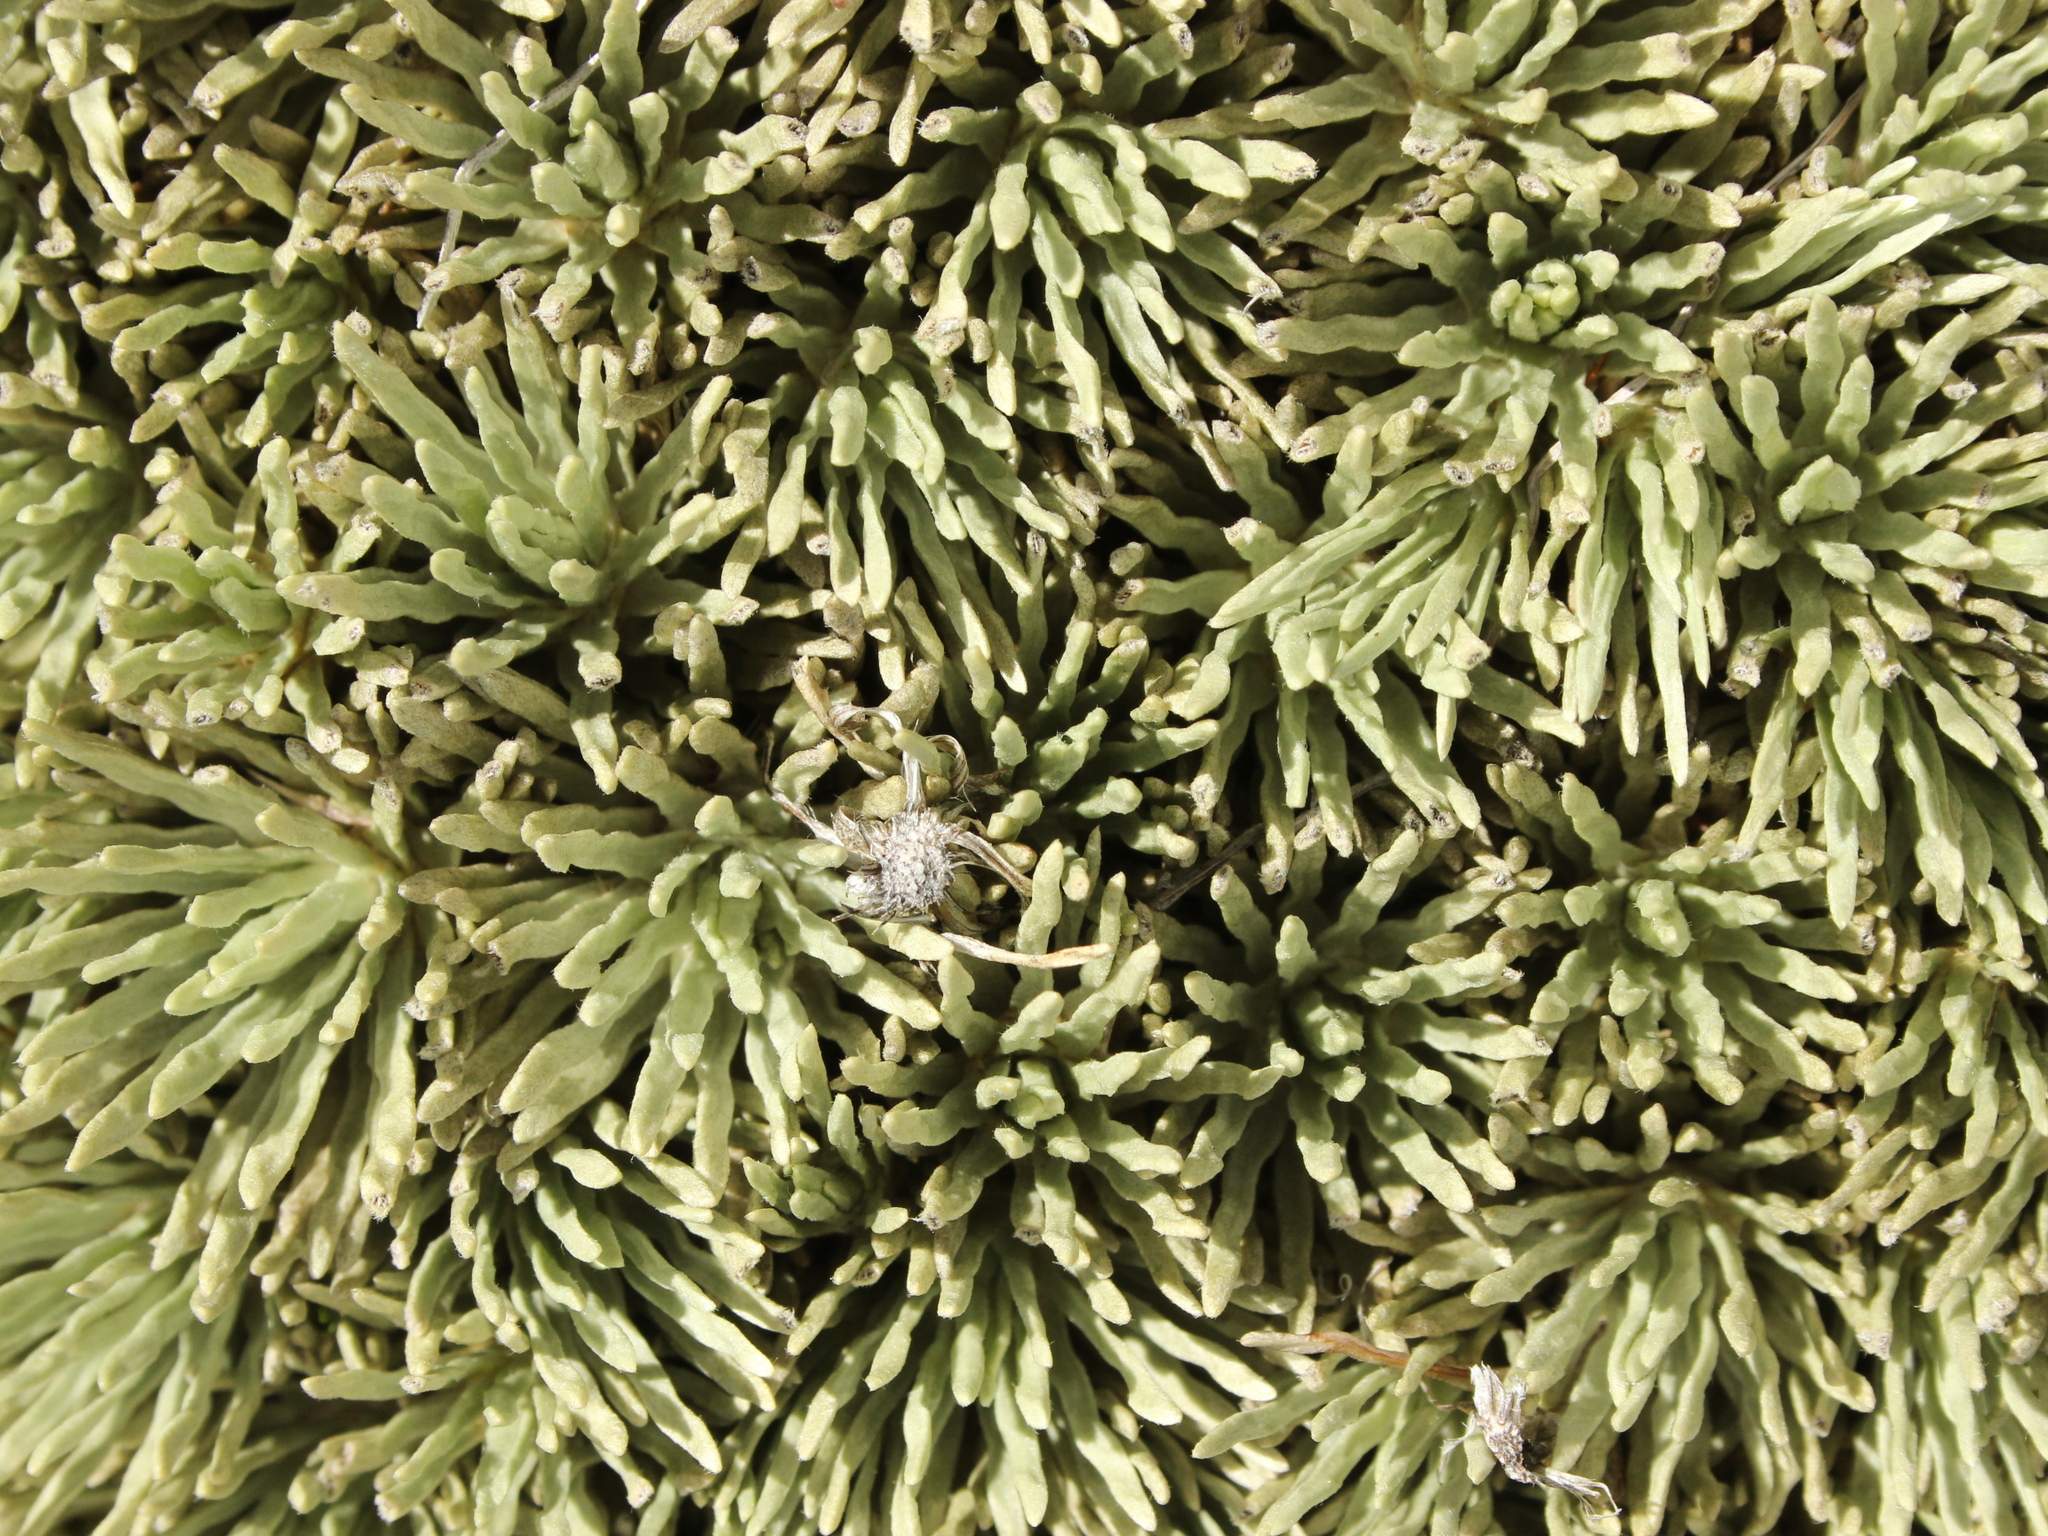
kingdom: Plantae
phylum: Tracheophyta
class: Magnoliopsida
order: Asterales
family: Asteraceae
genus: Celmisia
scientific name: Celmisia sessiliflora
